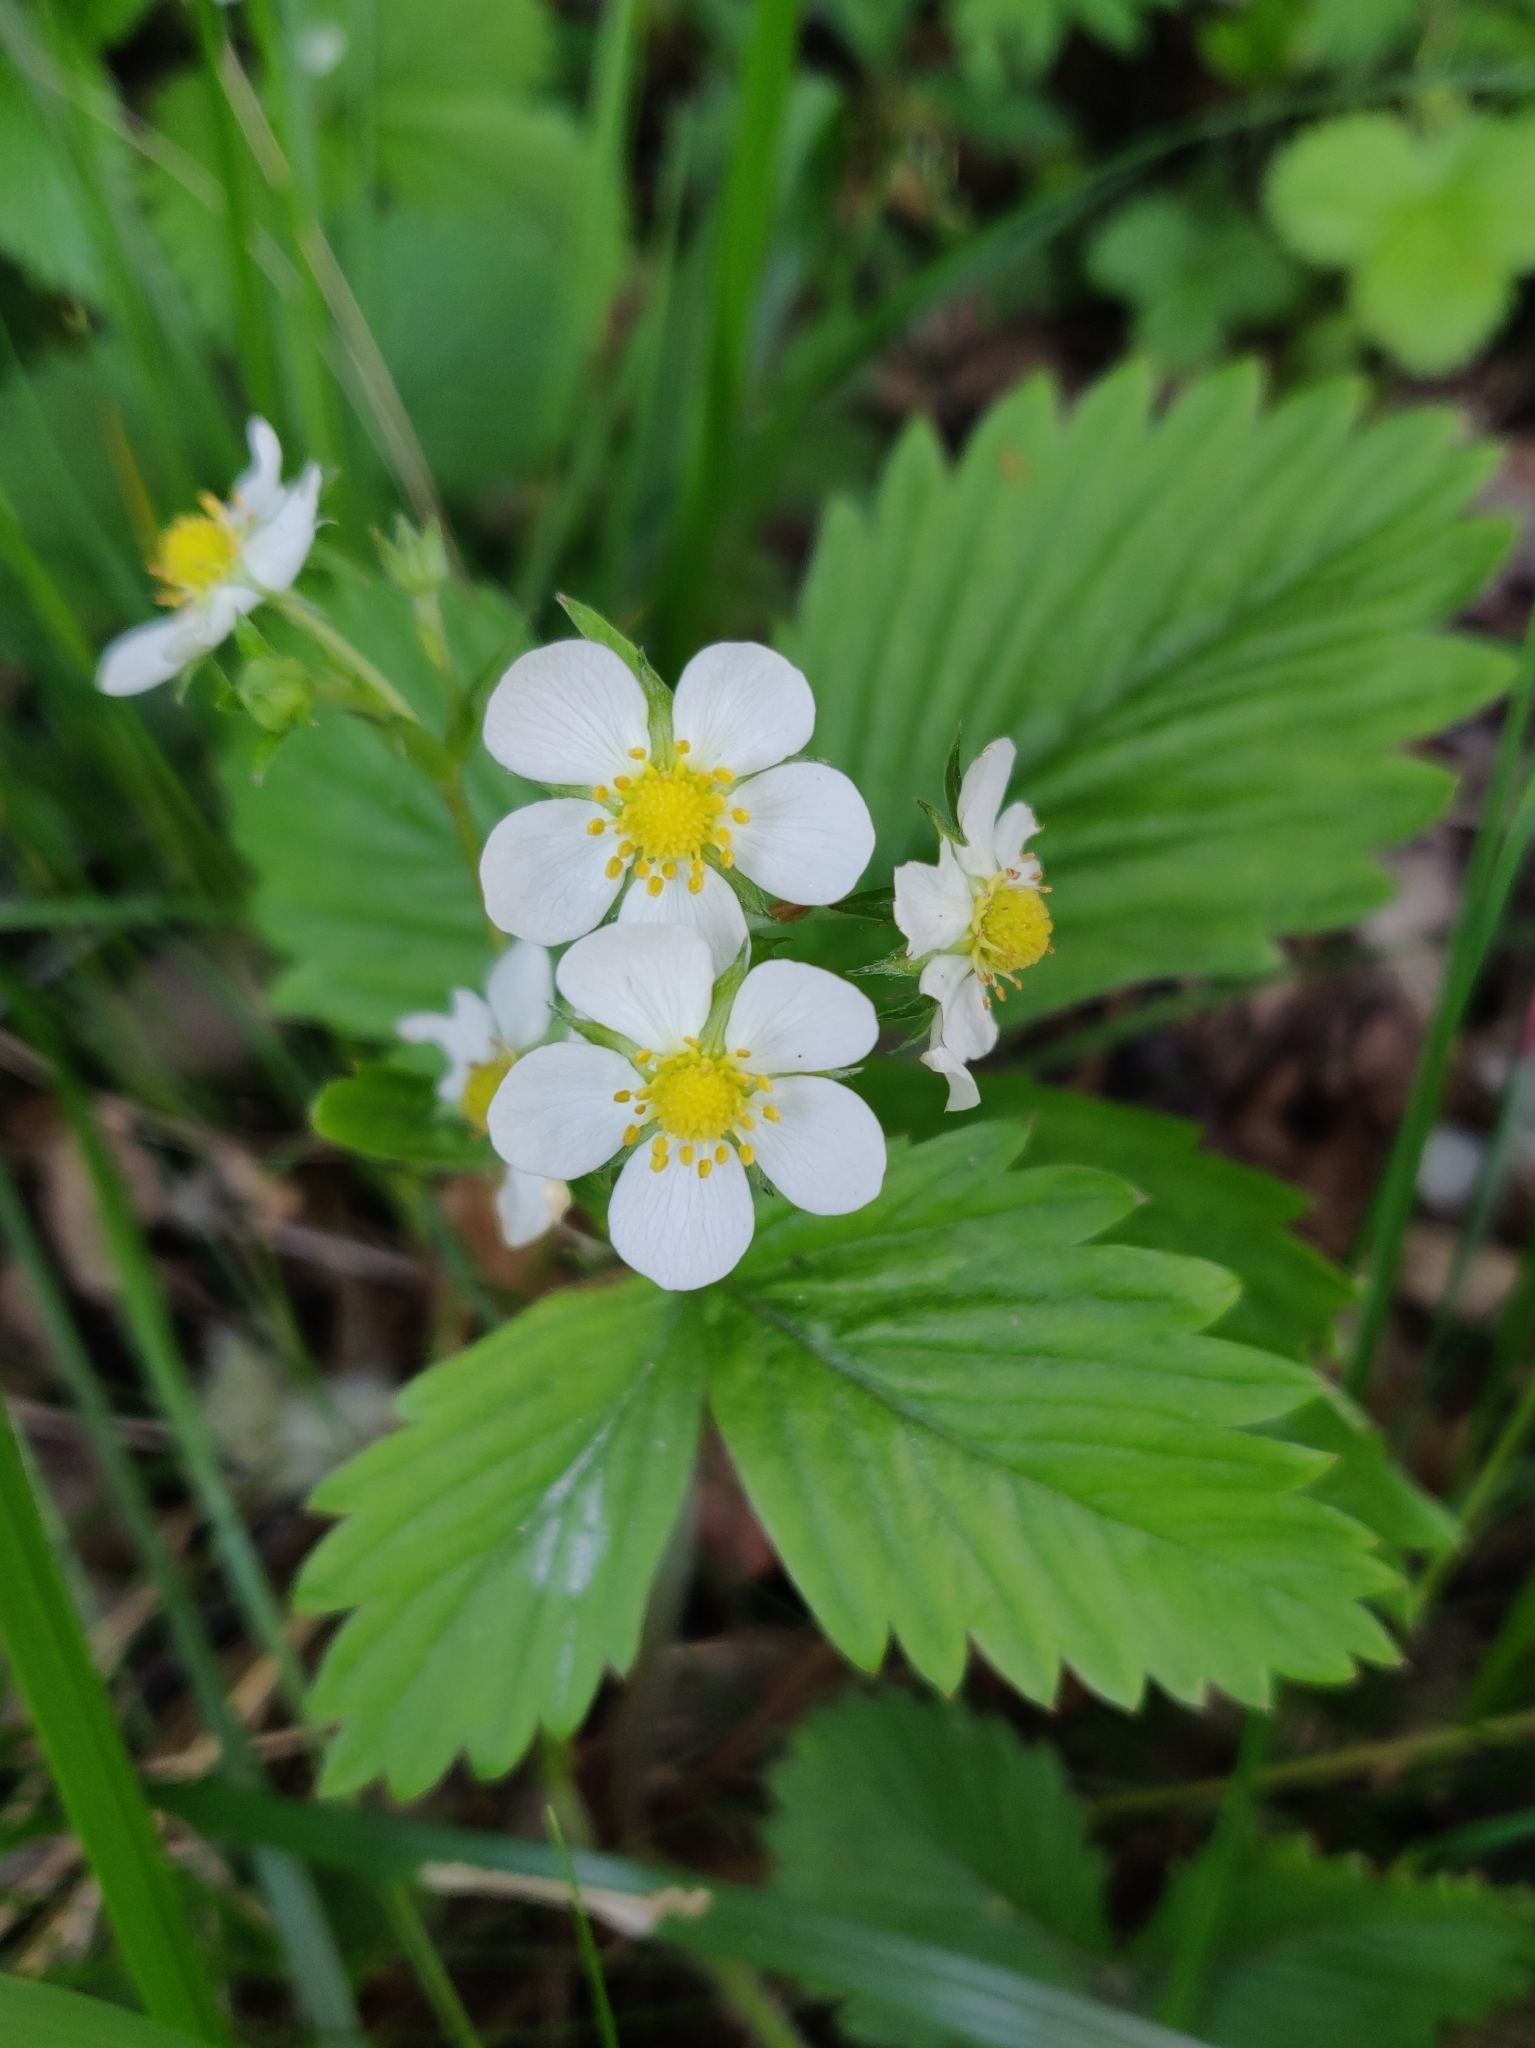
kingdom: Plantae
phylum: Tracheophyta
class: Magnoliopsida
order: Rosales
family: Rosaceae
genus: Fragaria
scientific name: Fragaria vesca
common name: Wild strawberry
